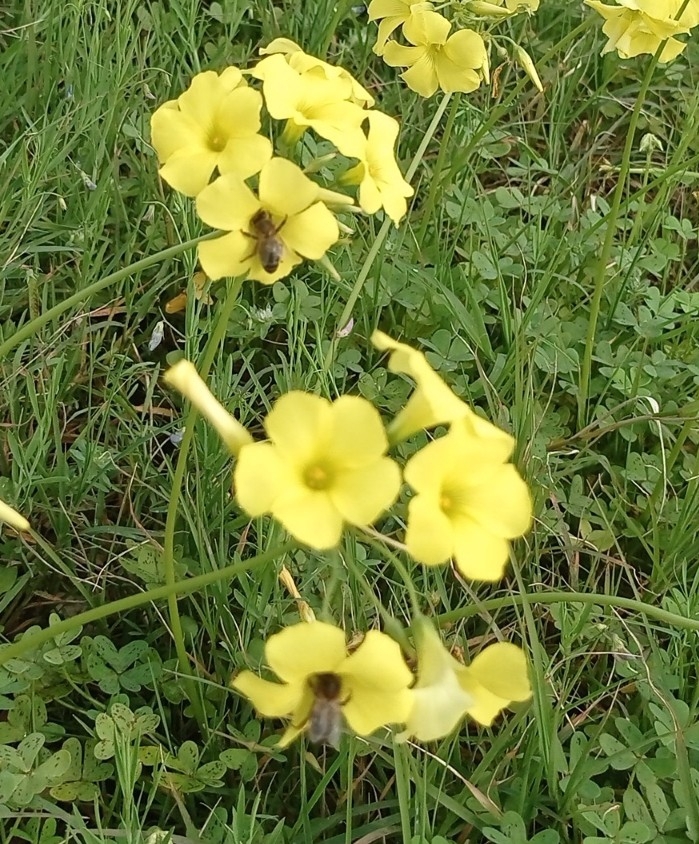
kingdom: Animalia
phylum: Arthropoda
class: Insecta
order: Hymenoptera
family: Apidae
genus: Apis
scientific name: Apis mellifera
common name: Honey bee
